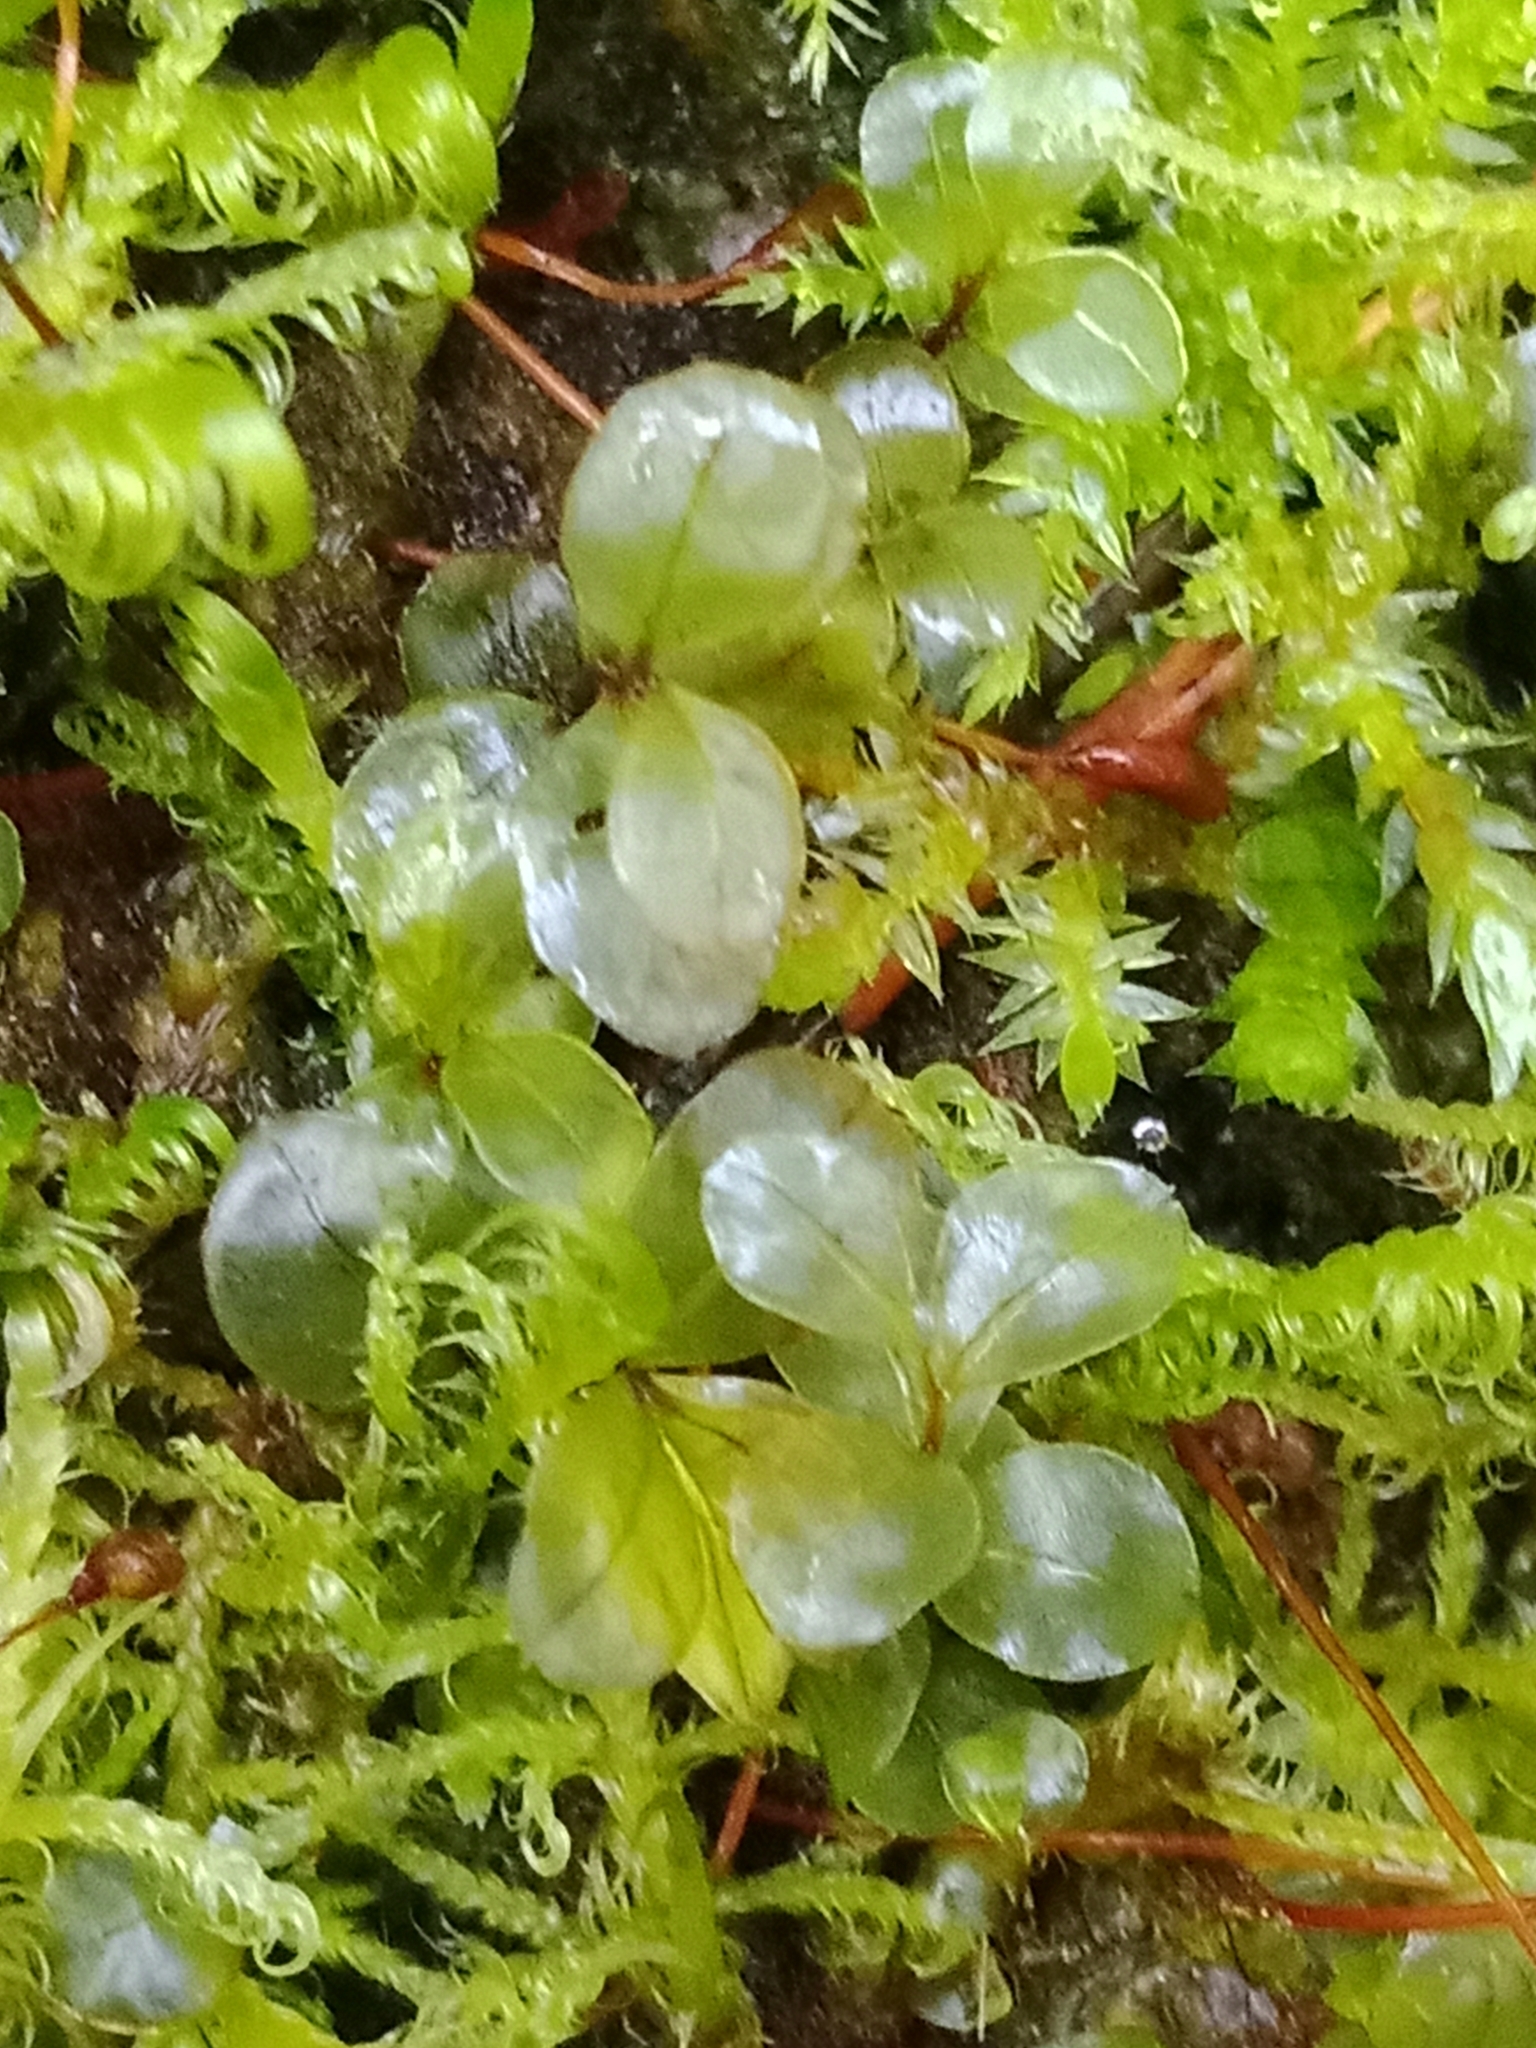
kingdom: Plantae
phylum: Bryophyta
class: Bryopsida
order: Bryales
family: Mniaceae
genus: Rhizomnium
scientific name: Rhizomnium punctatum
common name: Dotted leafy moss
